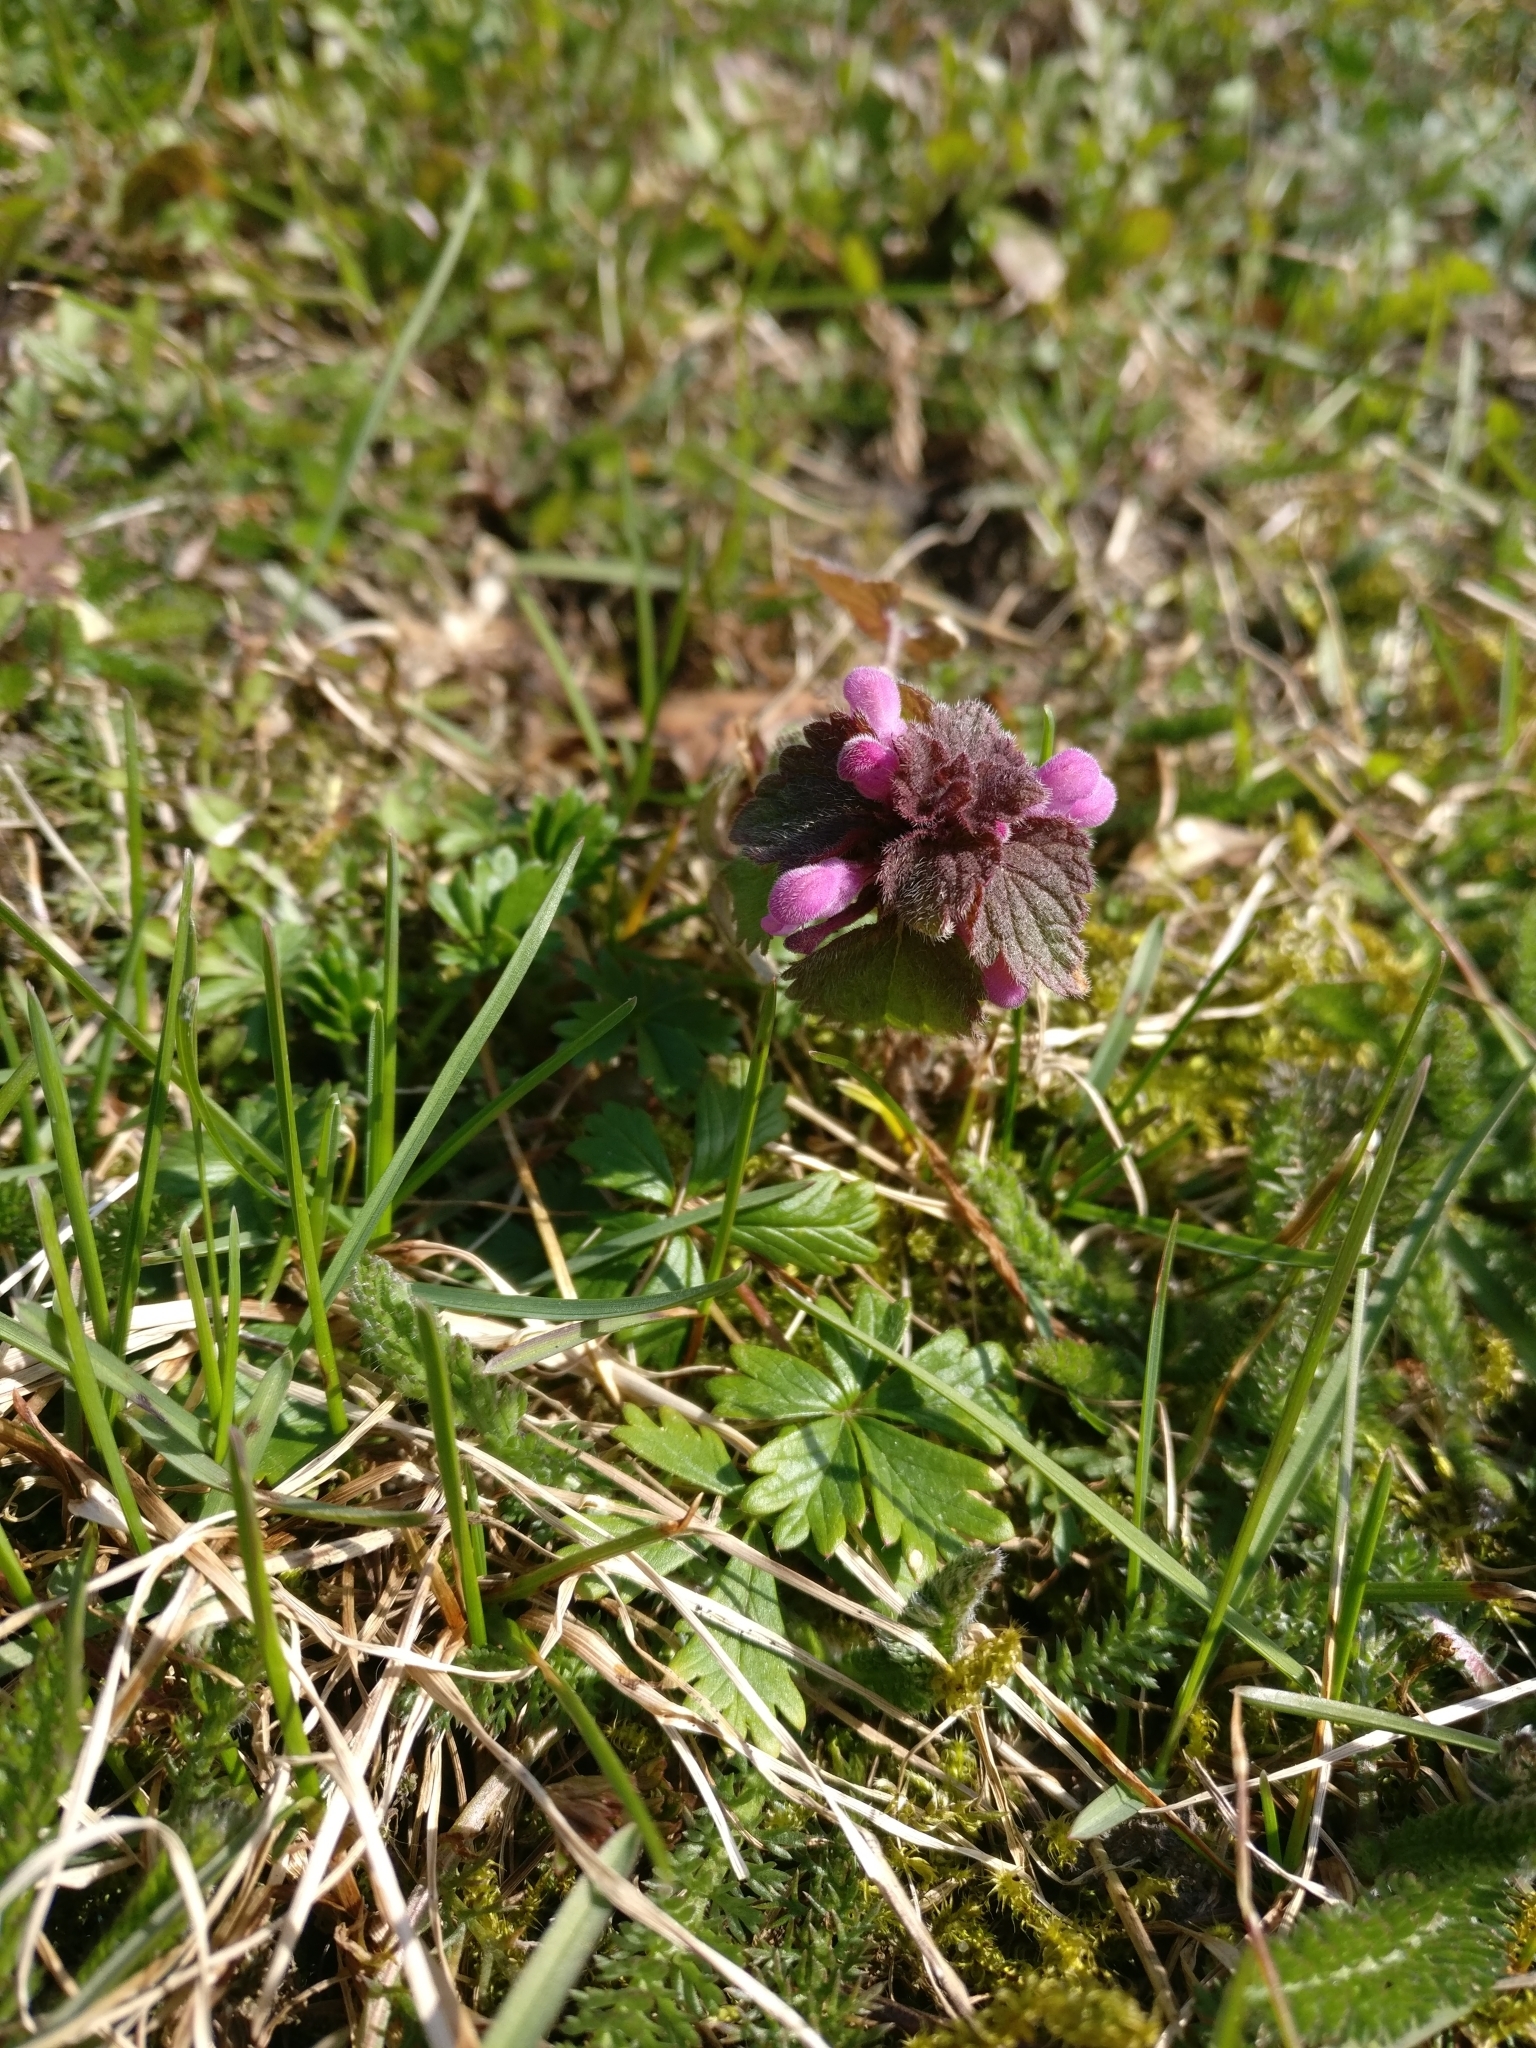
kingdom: Plantae
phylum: Tracheophyta
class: Magnoliopsida
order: Lamiales
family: Lamiaceae
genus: Lamium
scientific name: Lamium purpureum
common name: Red dead-nettle
